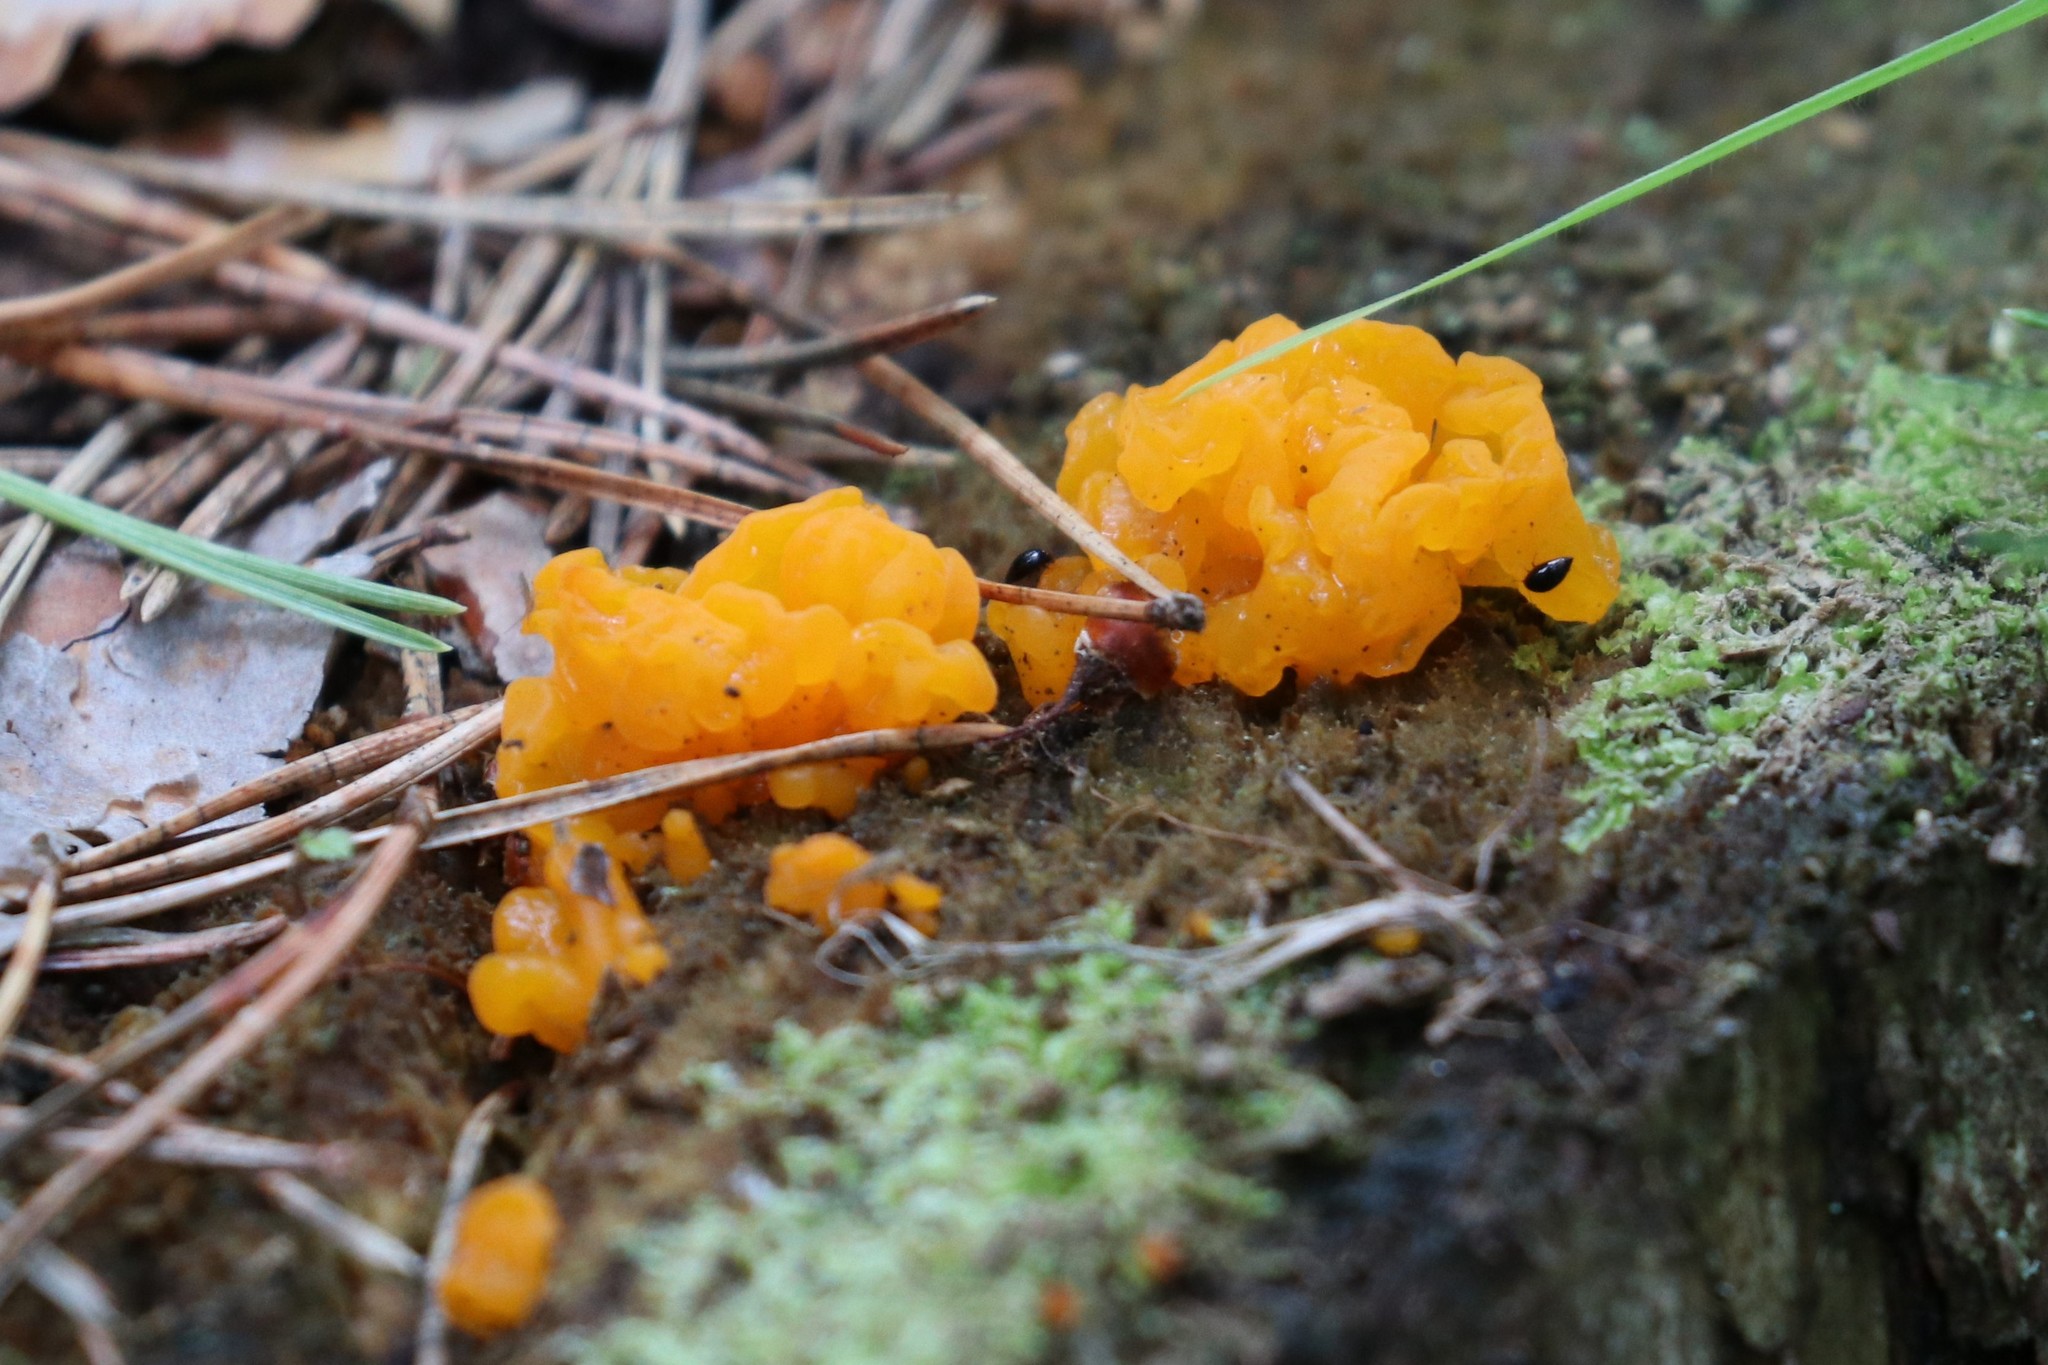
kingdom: Fungi
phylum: Basidiomycota
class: Dacrymycetes
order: Dacrymycetales
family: Dacrymycetaceae
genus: Dacrymyces
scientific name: Dacrymyces chrysospermus
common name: Orange jelly spot
